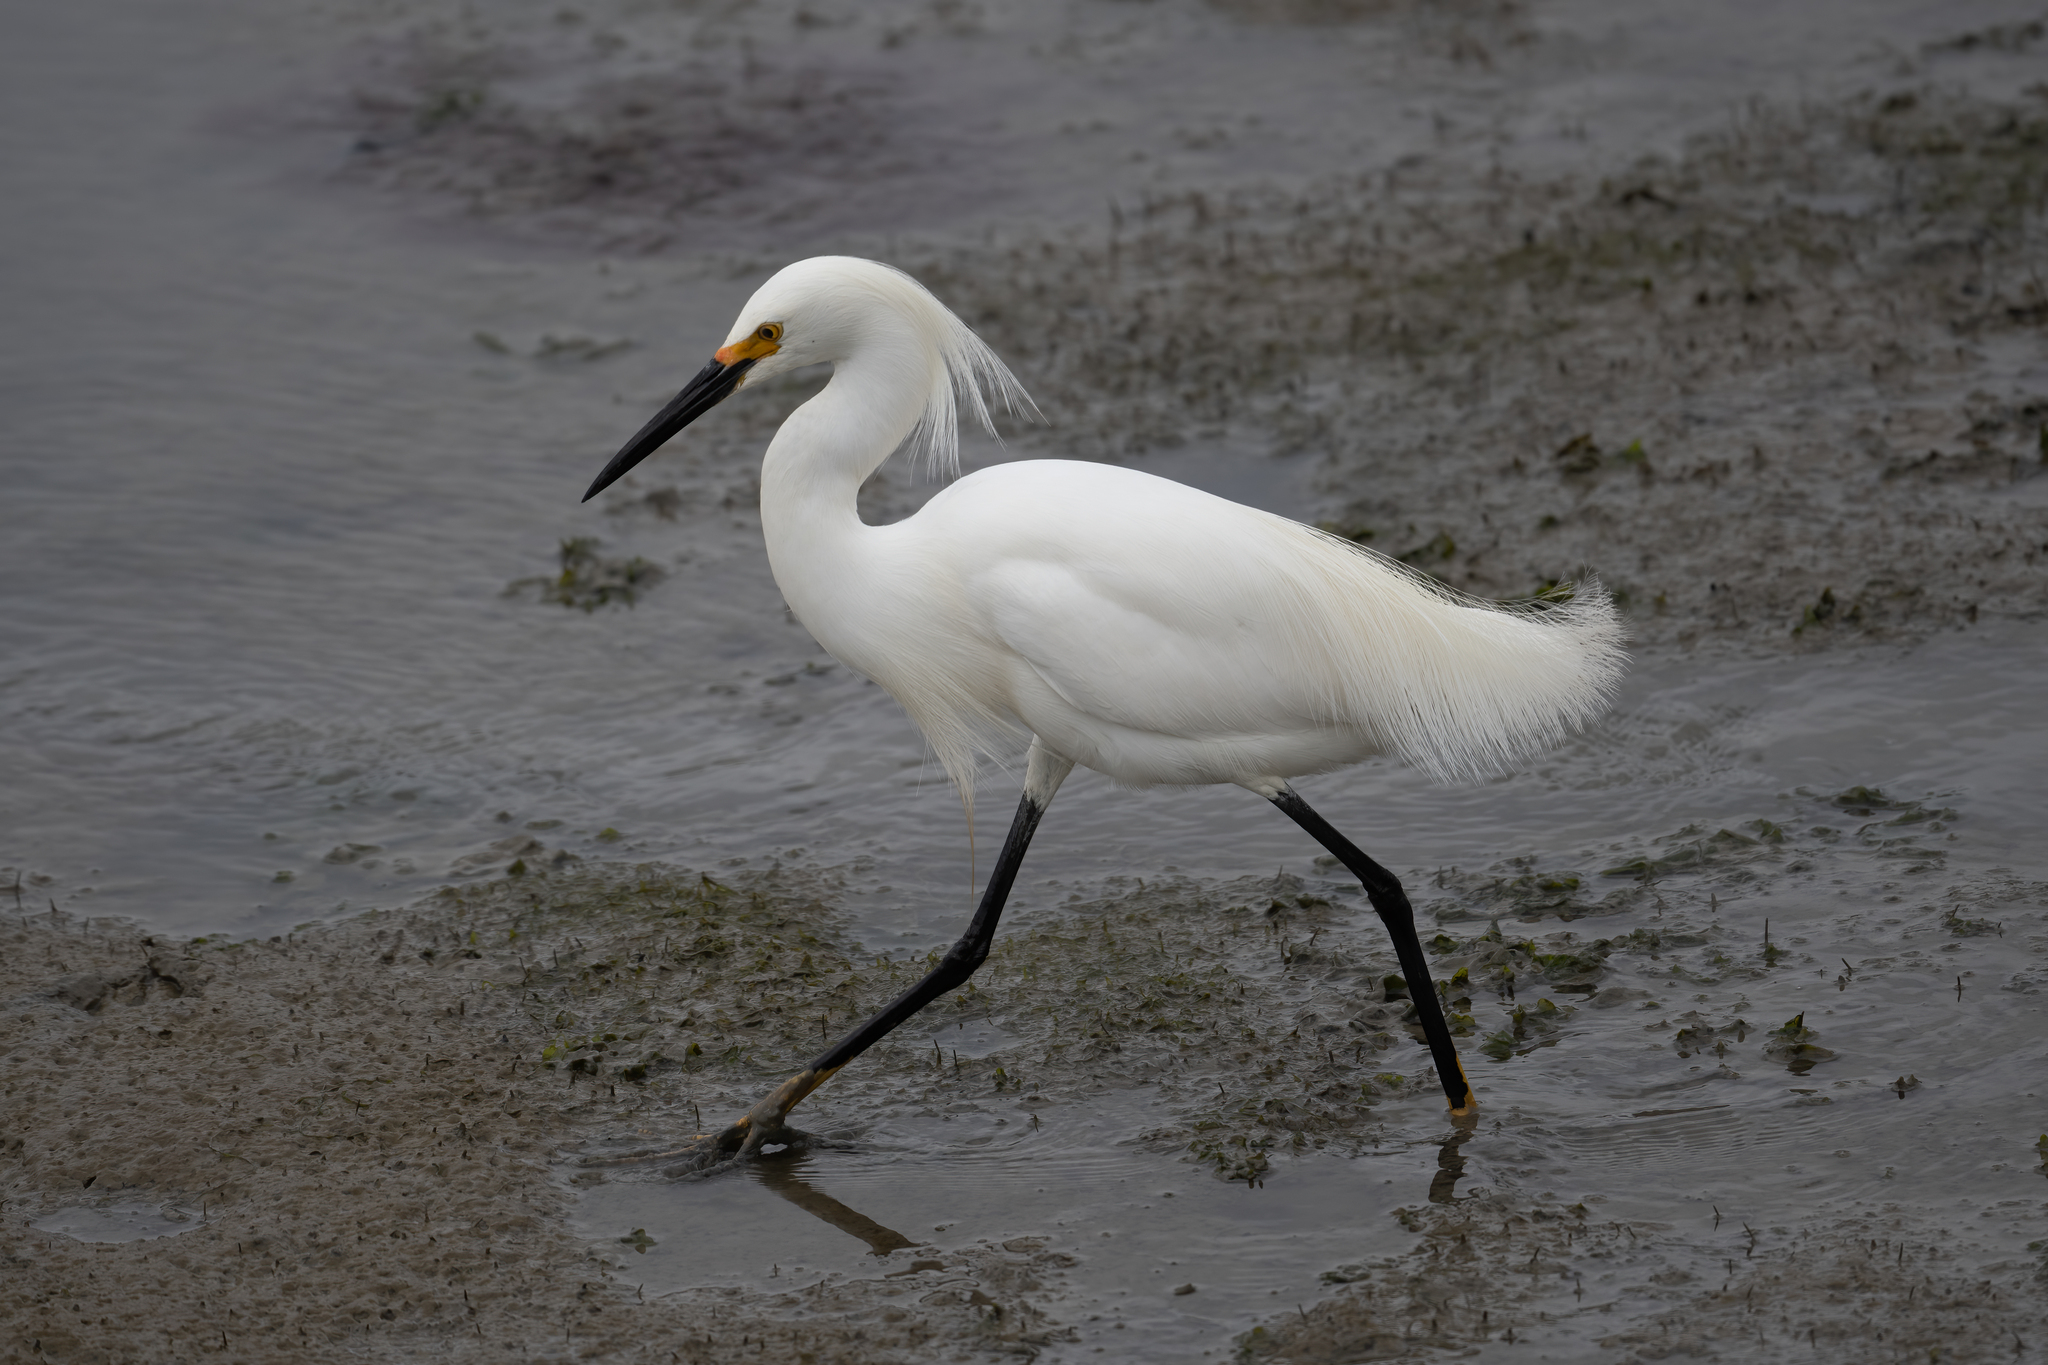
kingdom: Animalia
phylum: Chordata
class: Aves
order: Pelecaniformes
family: Ardeidae
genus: Egretta
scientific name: Egretta thula
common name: Snowy egret
